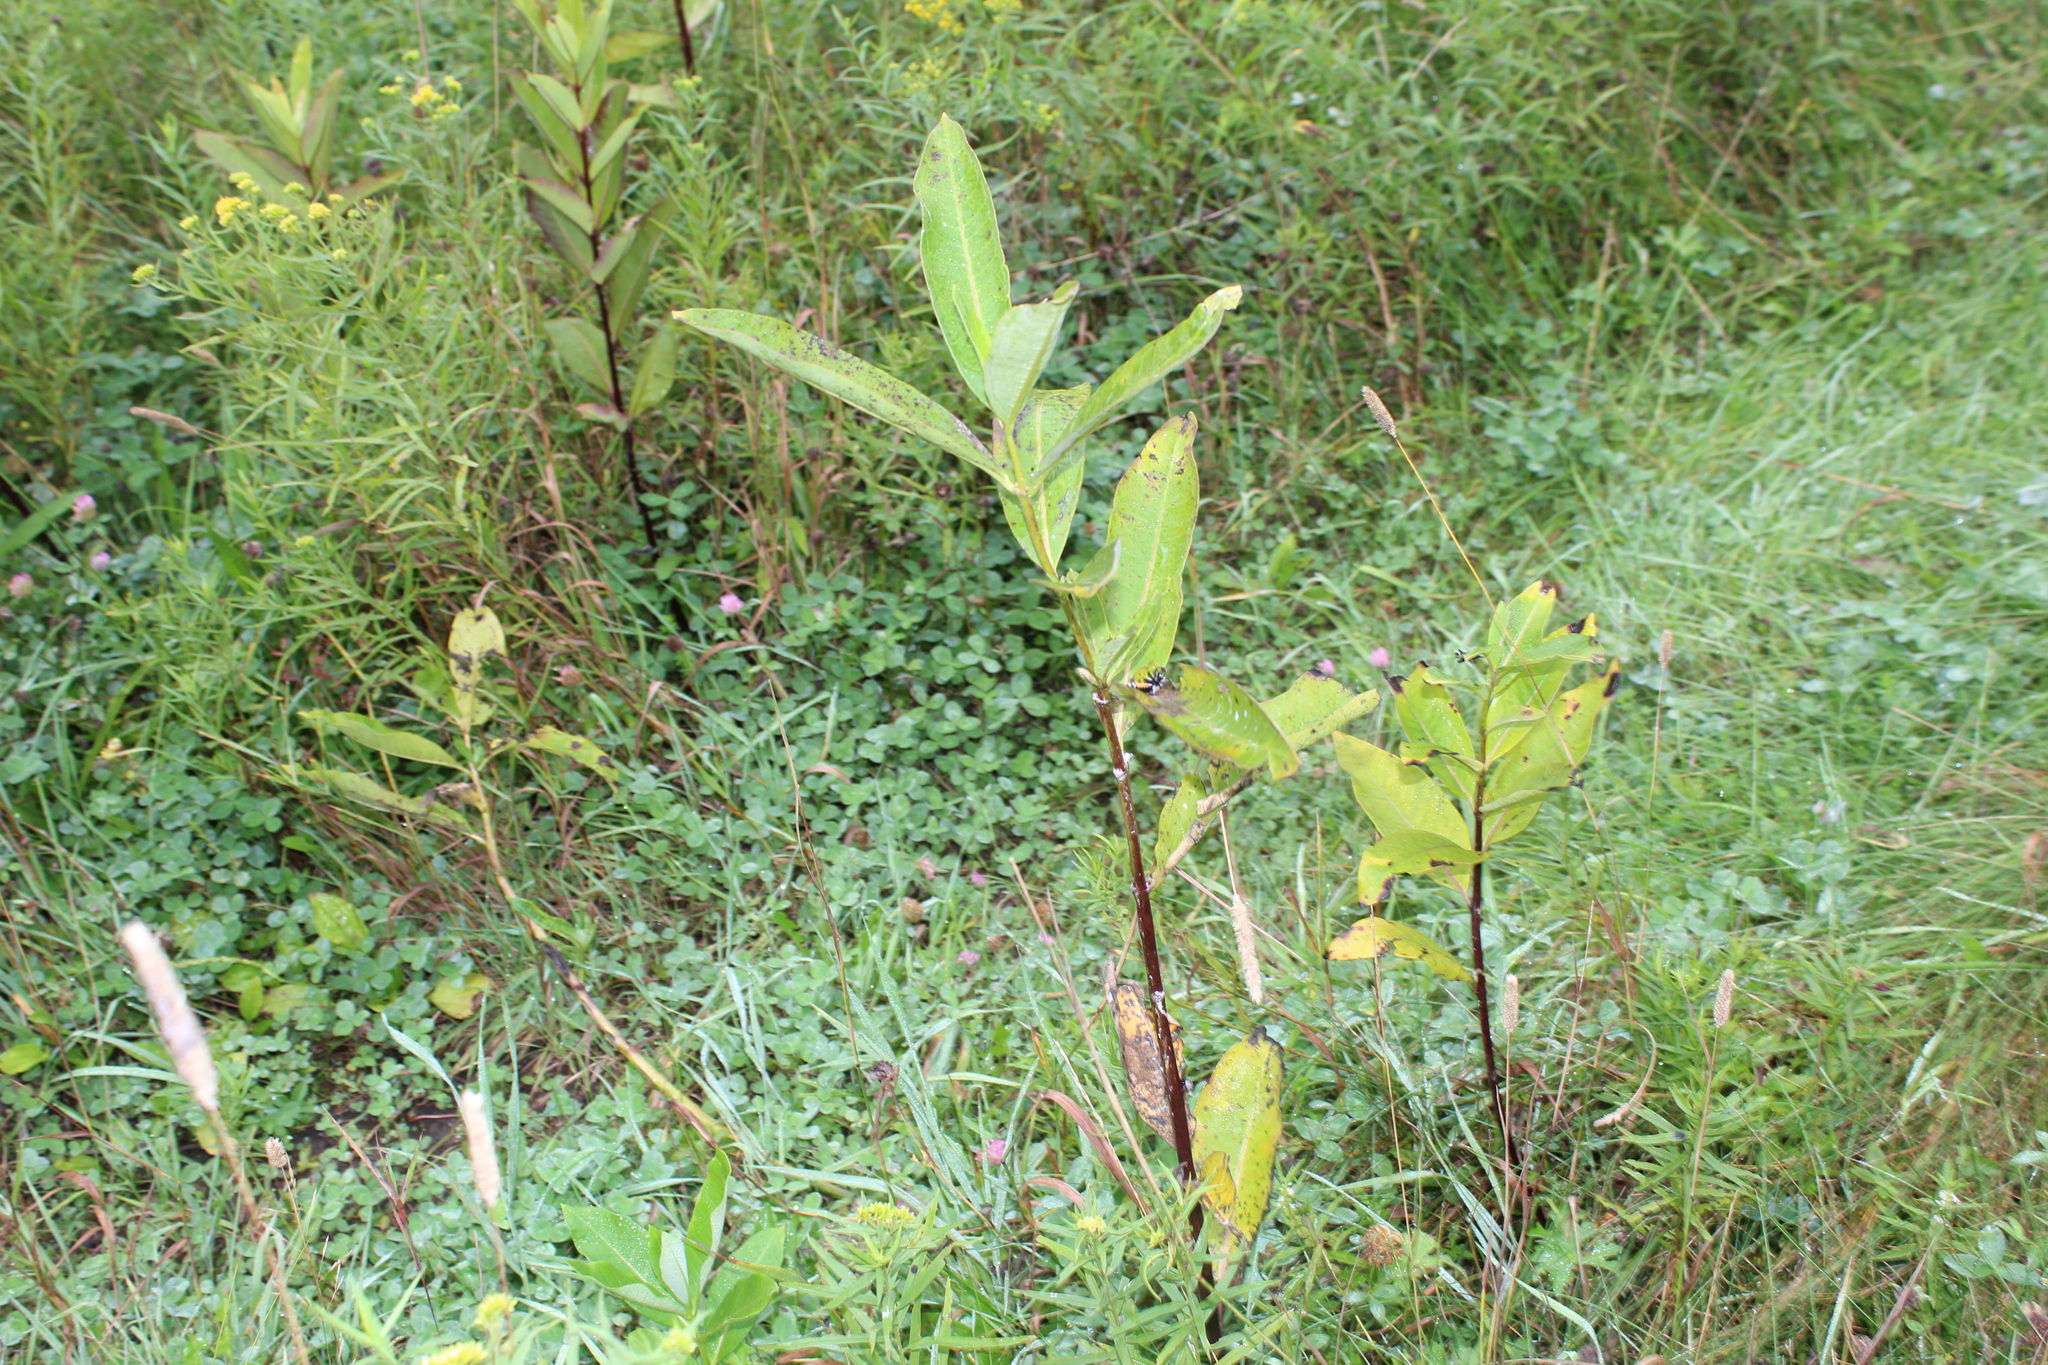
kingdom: Plantae
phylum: Tracheophyta
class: Magnoliopsida
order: Gentianales
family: Apocynaceae
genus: Asclepias
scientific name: Asclepias syriaca
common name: Common milkweed
